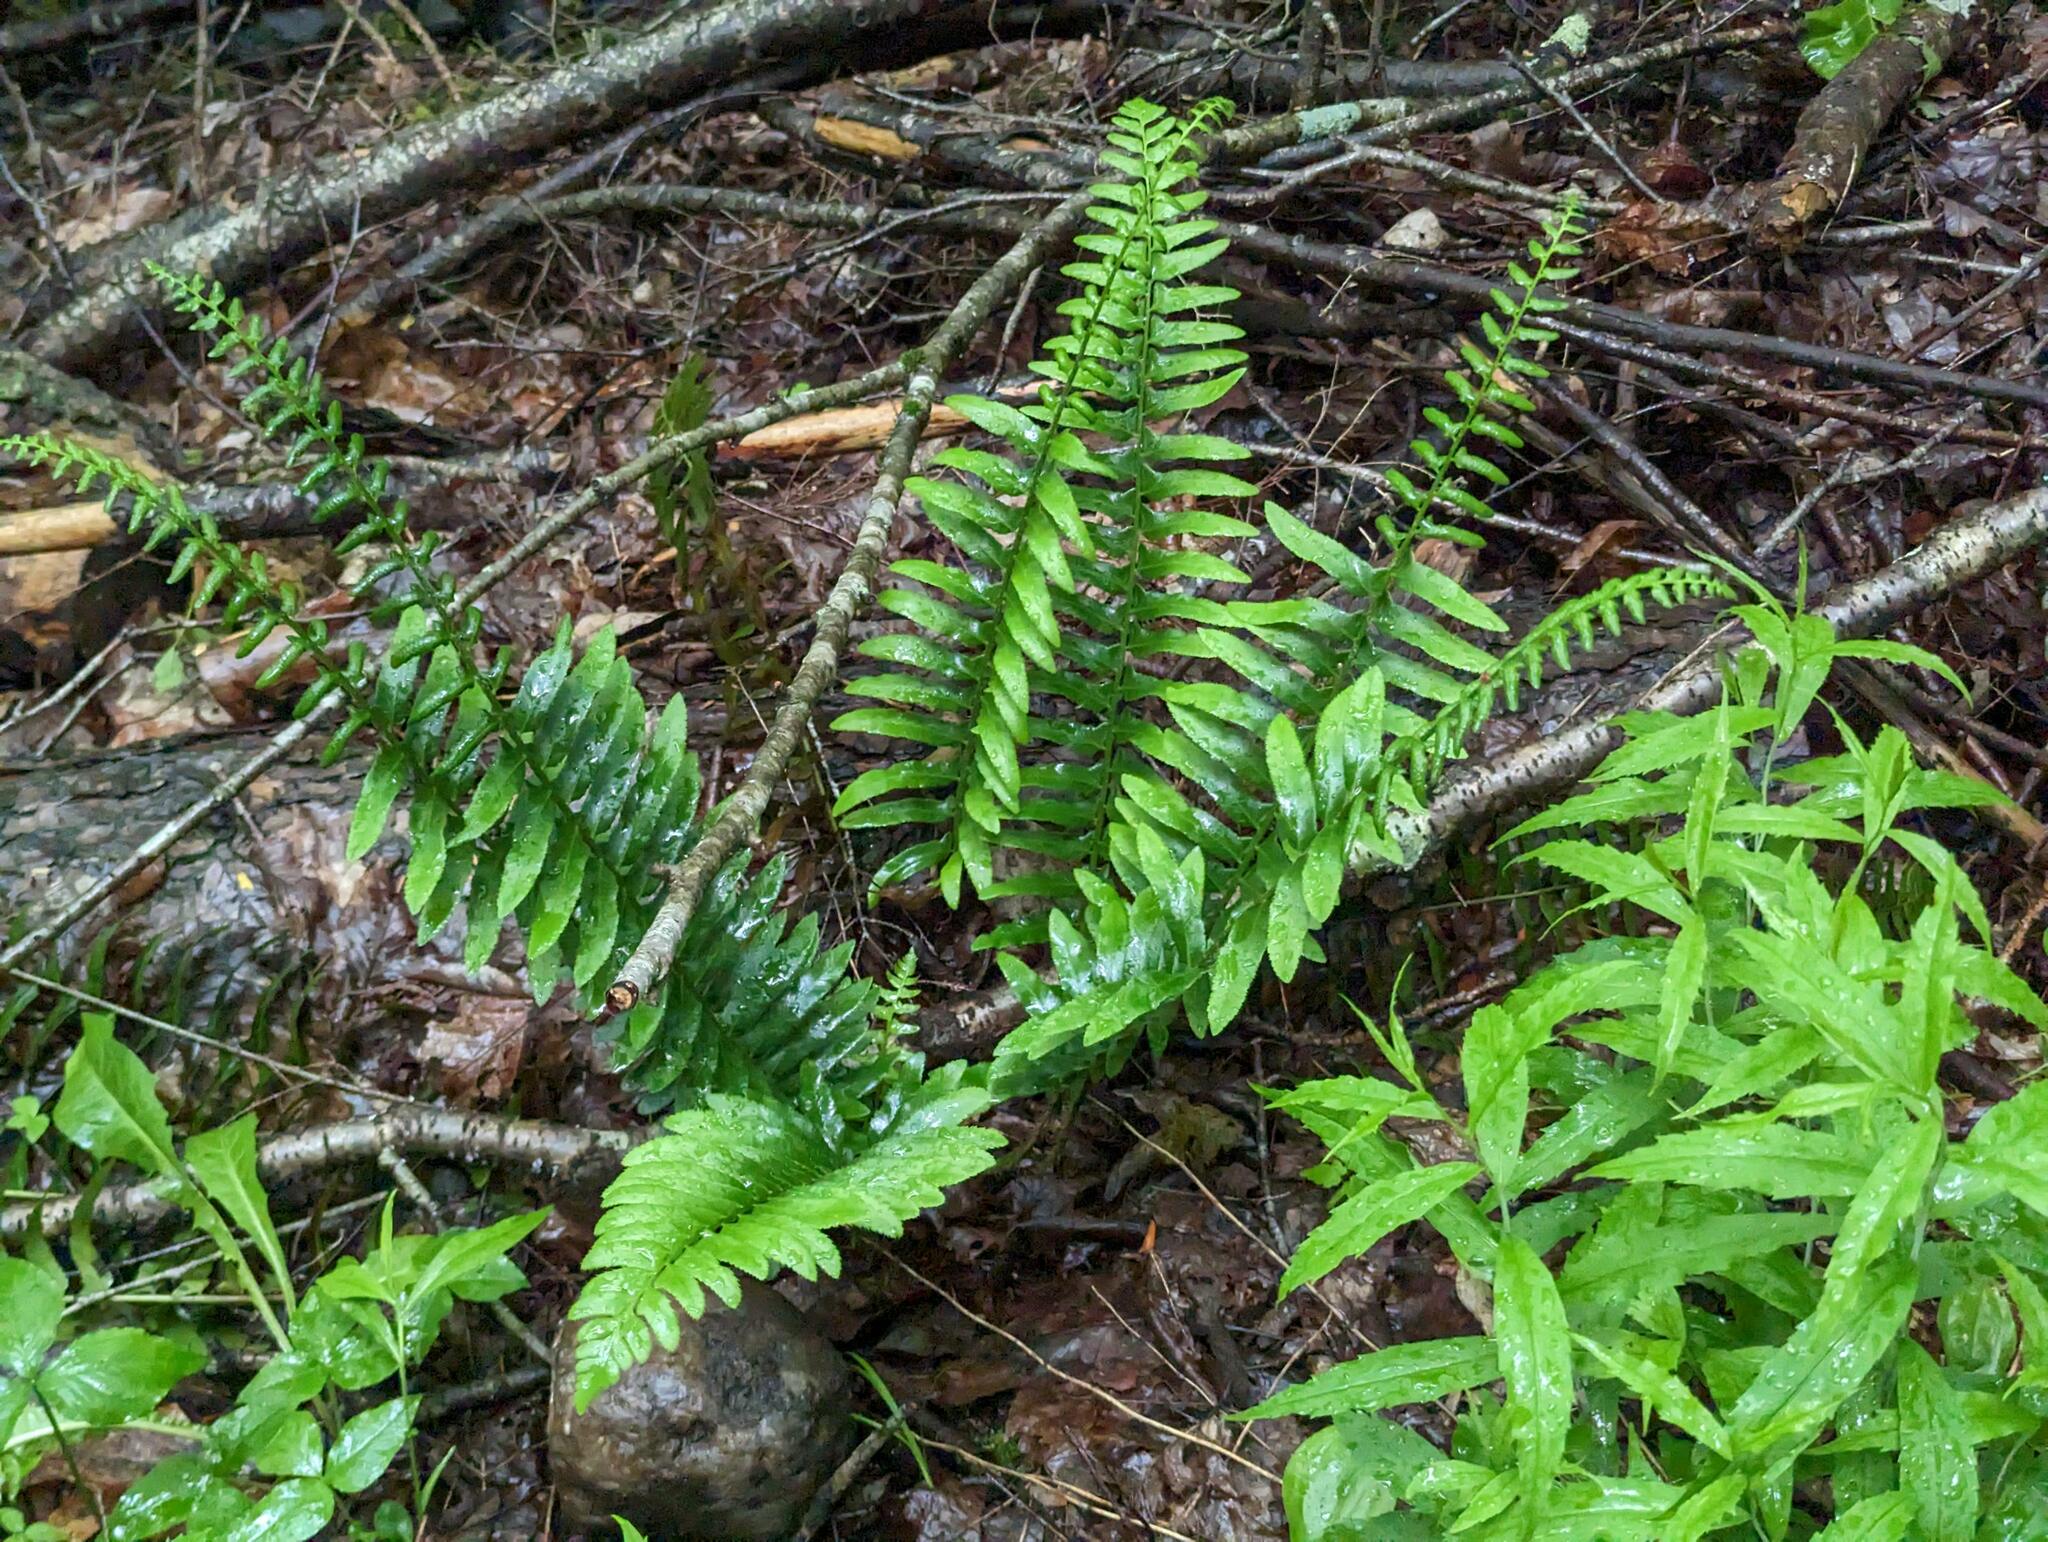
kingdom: Plantae
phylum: Tracheophyta
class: Polypodiopsida
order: Polypodiales
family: Dryopteridaceae
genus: Polystichum
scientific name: Polystichum acrostichoides
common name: Christmas fern
